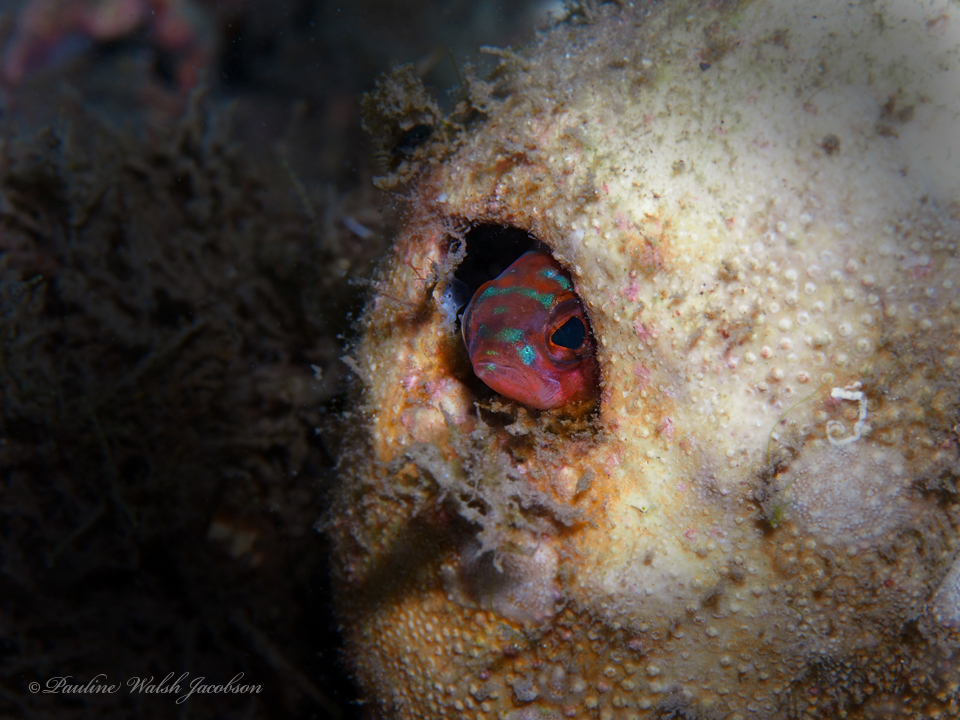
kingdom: Animalia
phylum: Chordata
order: Perciformes
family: Serranidae
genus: Serranus
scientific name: Serranus tortugarum
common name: Chalk bass
